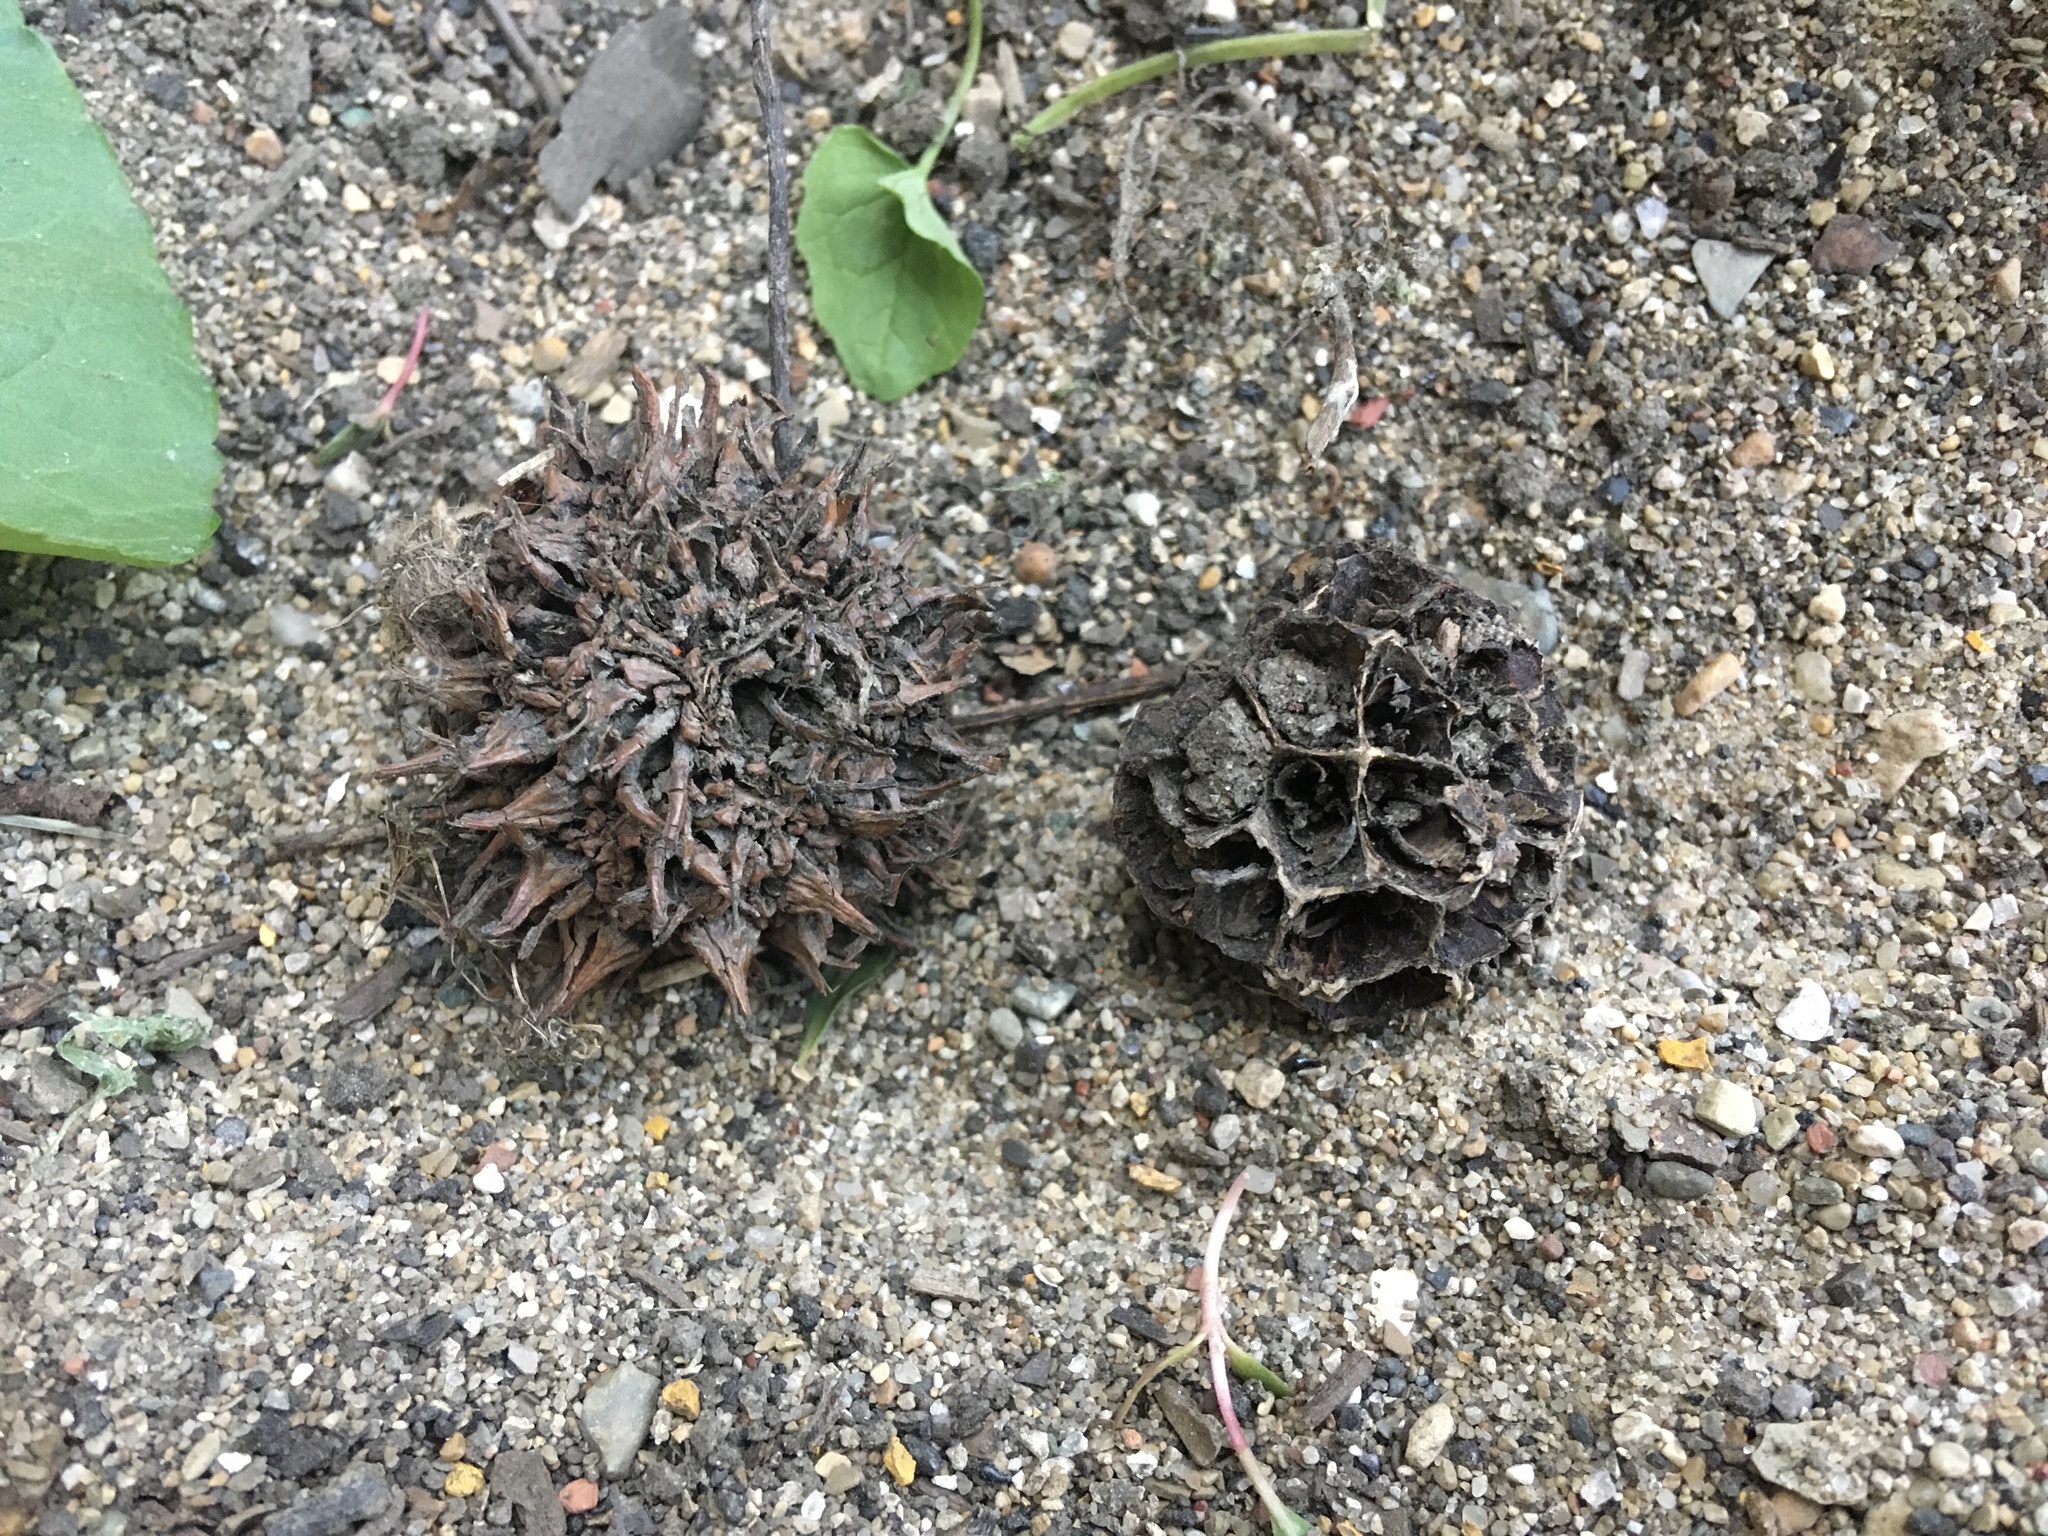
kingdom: Plantae
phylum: Tracheophyta
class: Magnoliopsida
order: Saxifragales
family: Altingiaceae
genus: Liquidambar
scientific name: Liquidambar styraciflua
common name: Sweet gum
